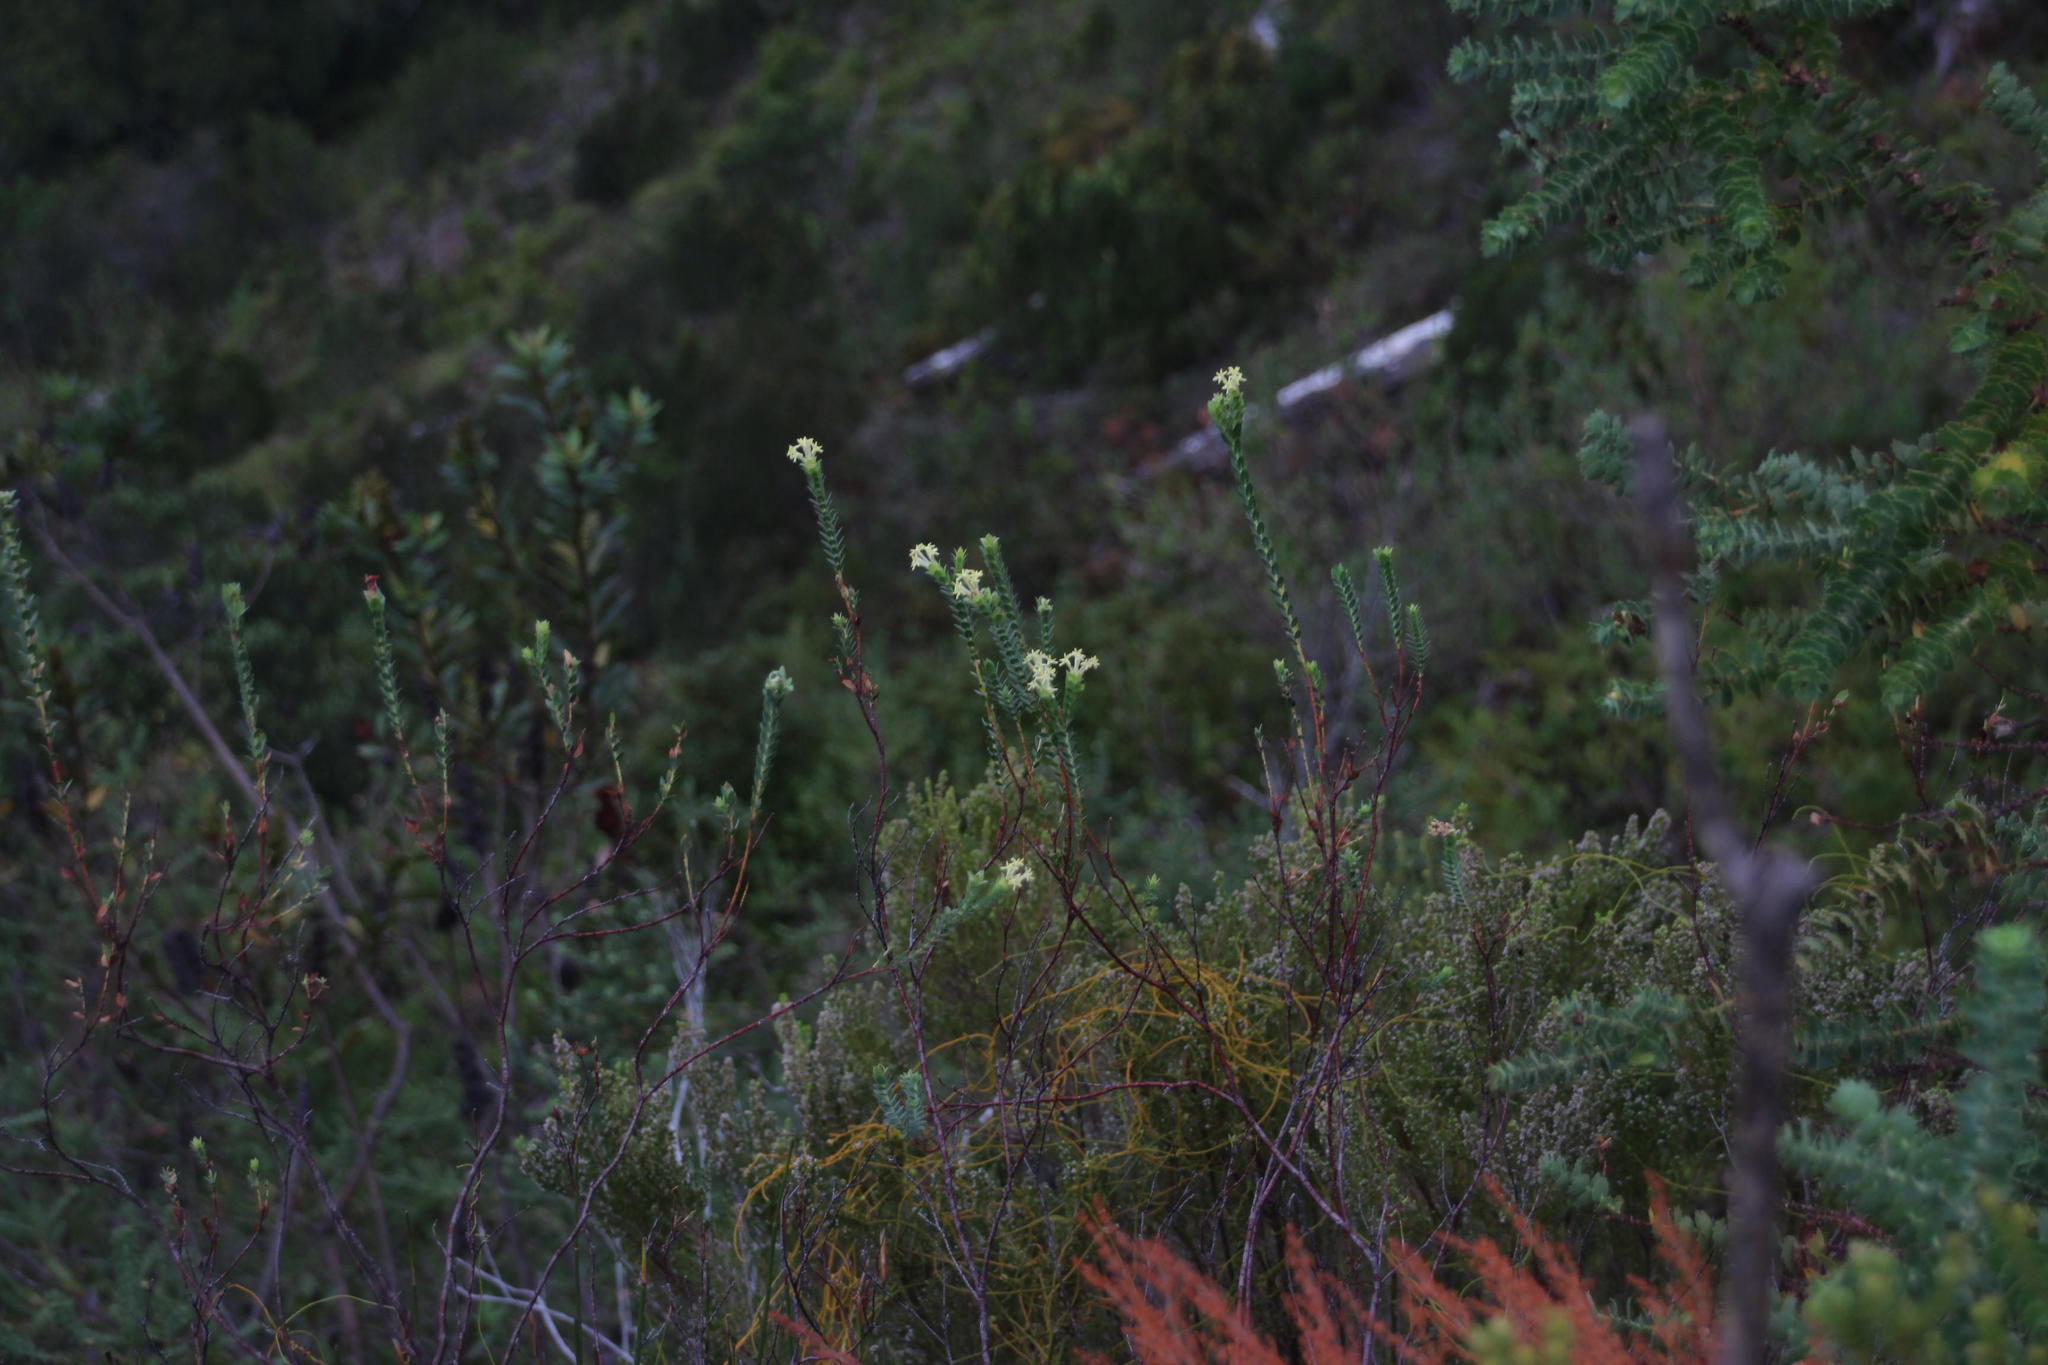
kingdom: Plantae
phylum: Tracheophyta
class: Magnoliopsida
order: Malvales
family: Thymelaeaceae
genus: Gnidia
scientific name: Gnidia oppositifolia
